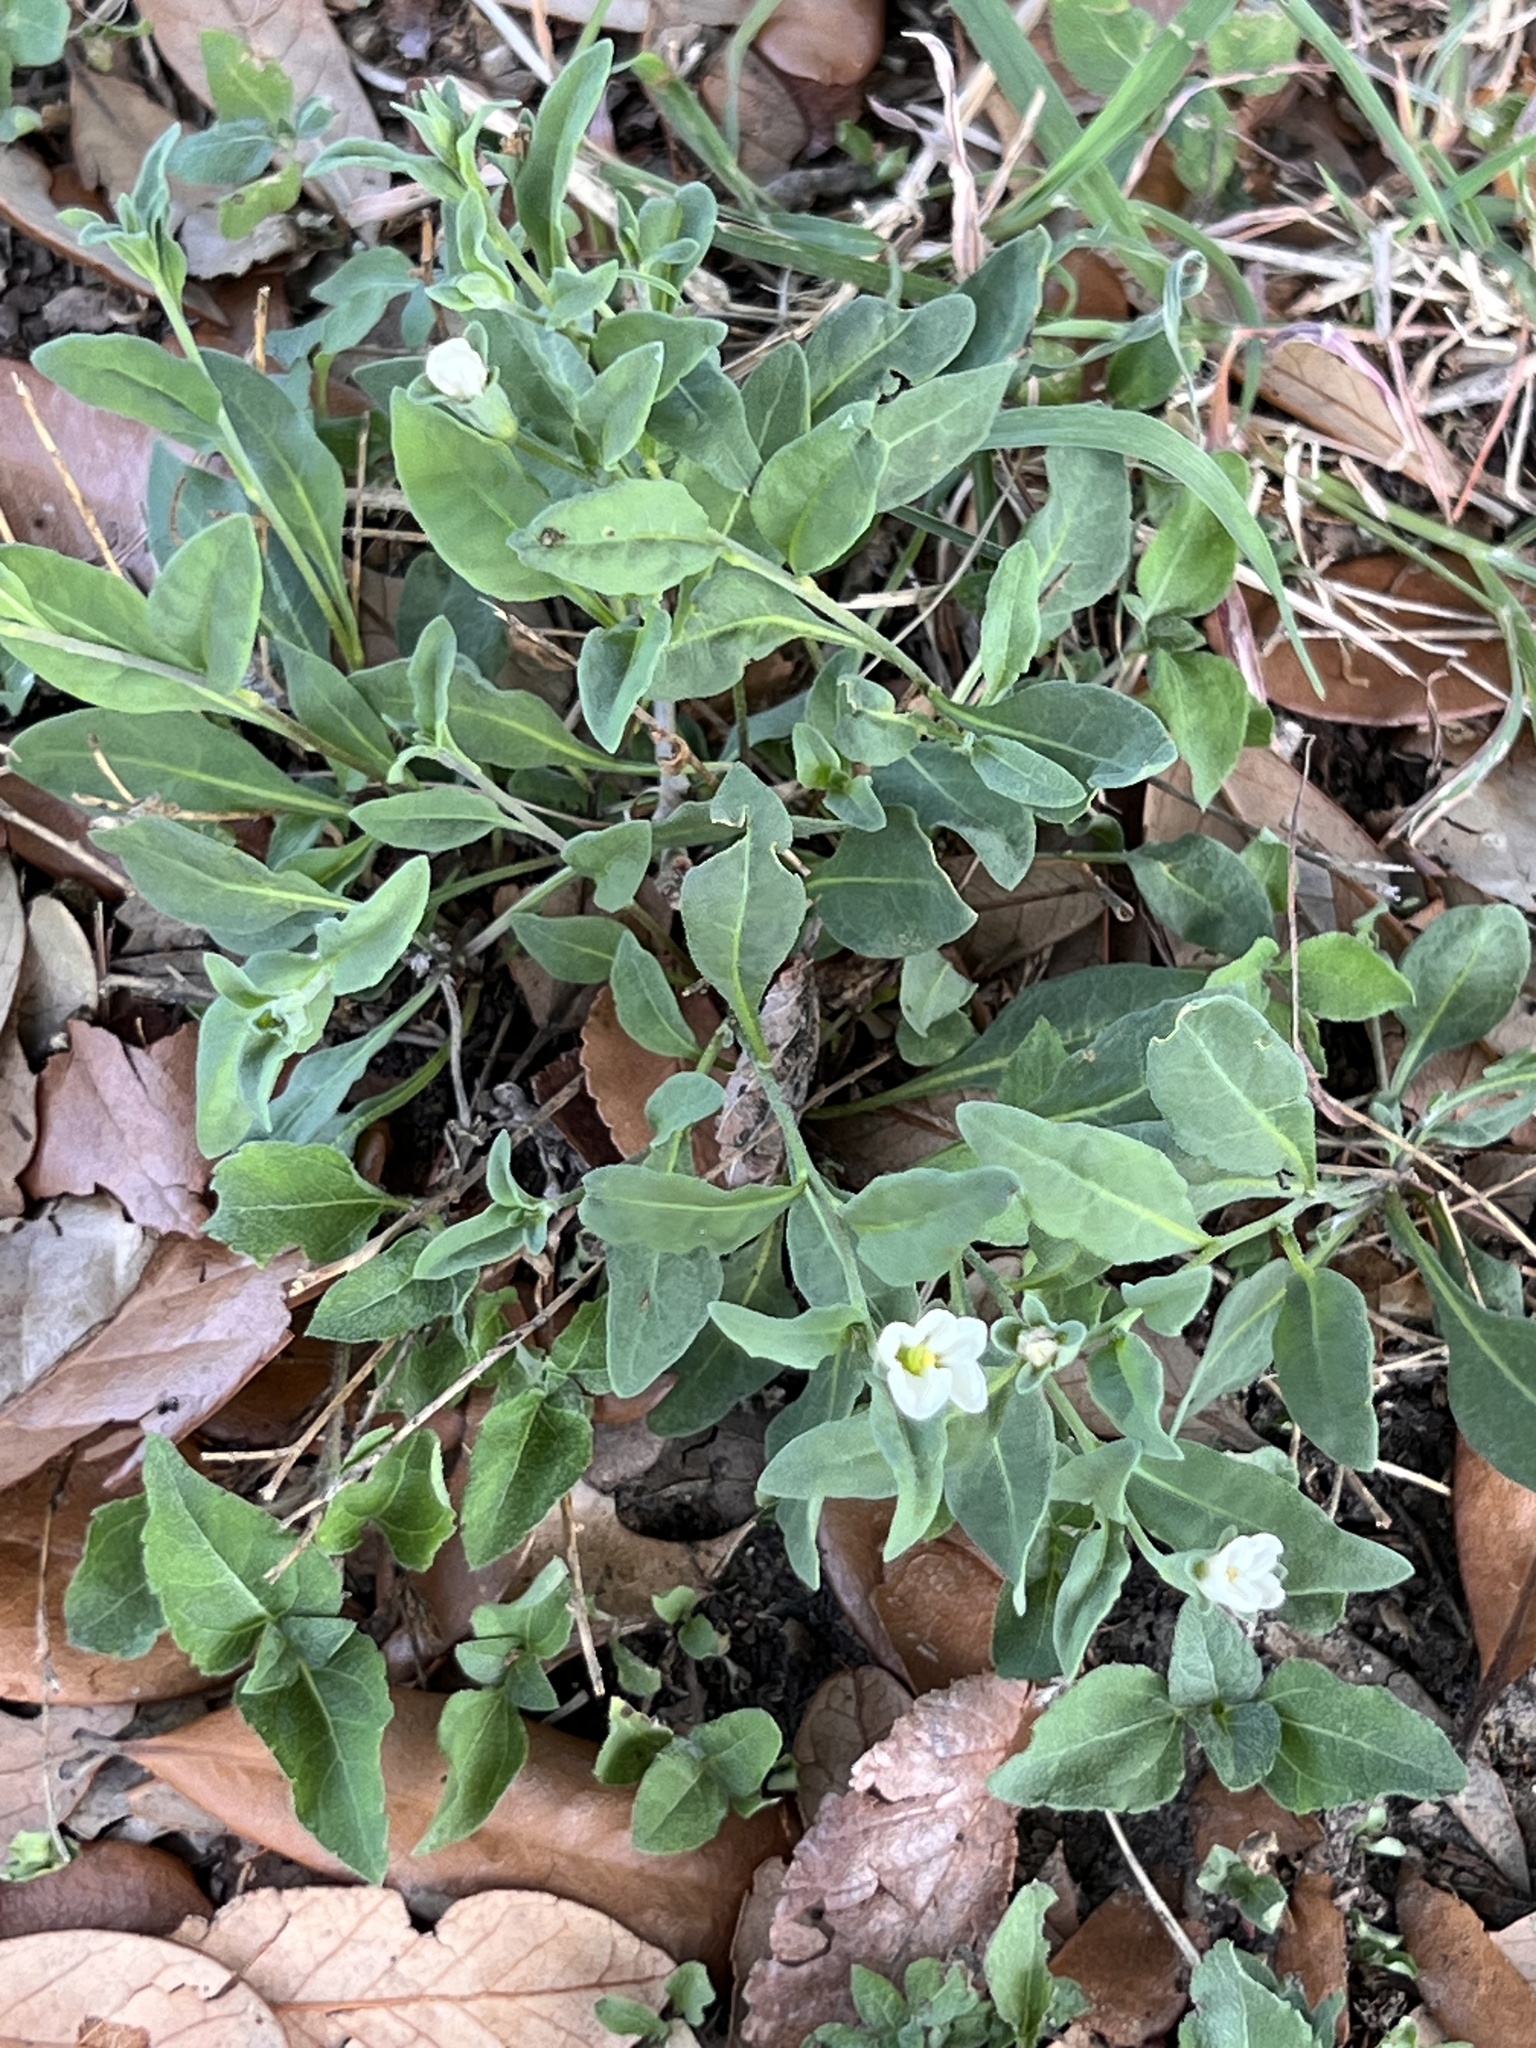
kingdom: Plantae
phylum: Tracheophyta
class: Magnoliopsida
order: Solanales
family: Solanaceae
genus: Salpiglossis
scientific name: Salpiglossis erecta
